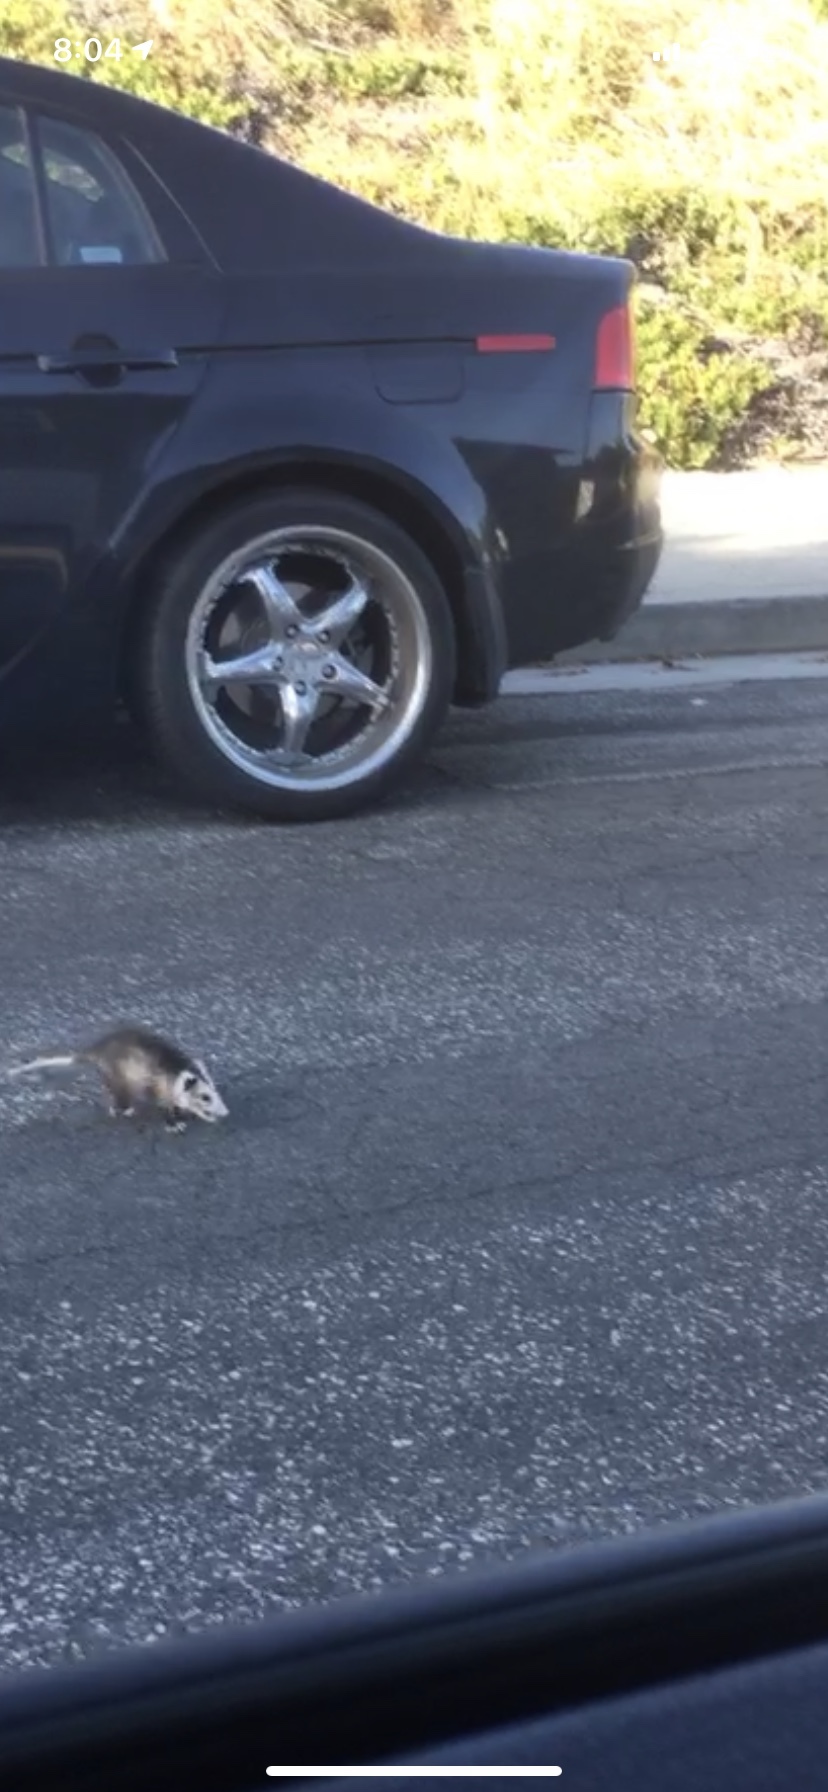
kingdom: Animalia
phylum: Chordata
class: Mammalia
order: Didelphimorphia
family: Didelphidae
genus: Didelphis
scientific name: Didelphis virginiana
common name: Virginia opossum
